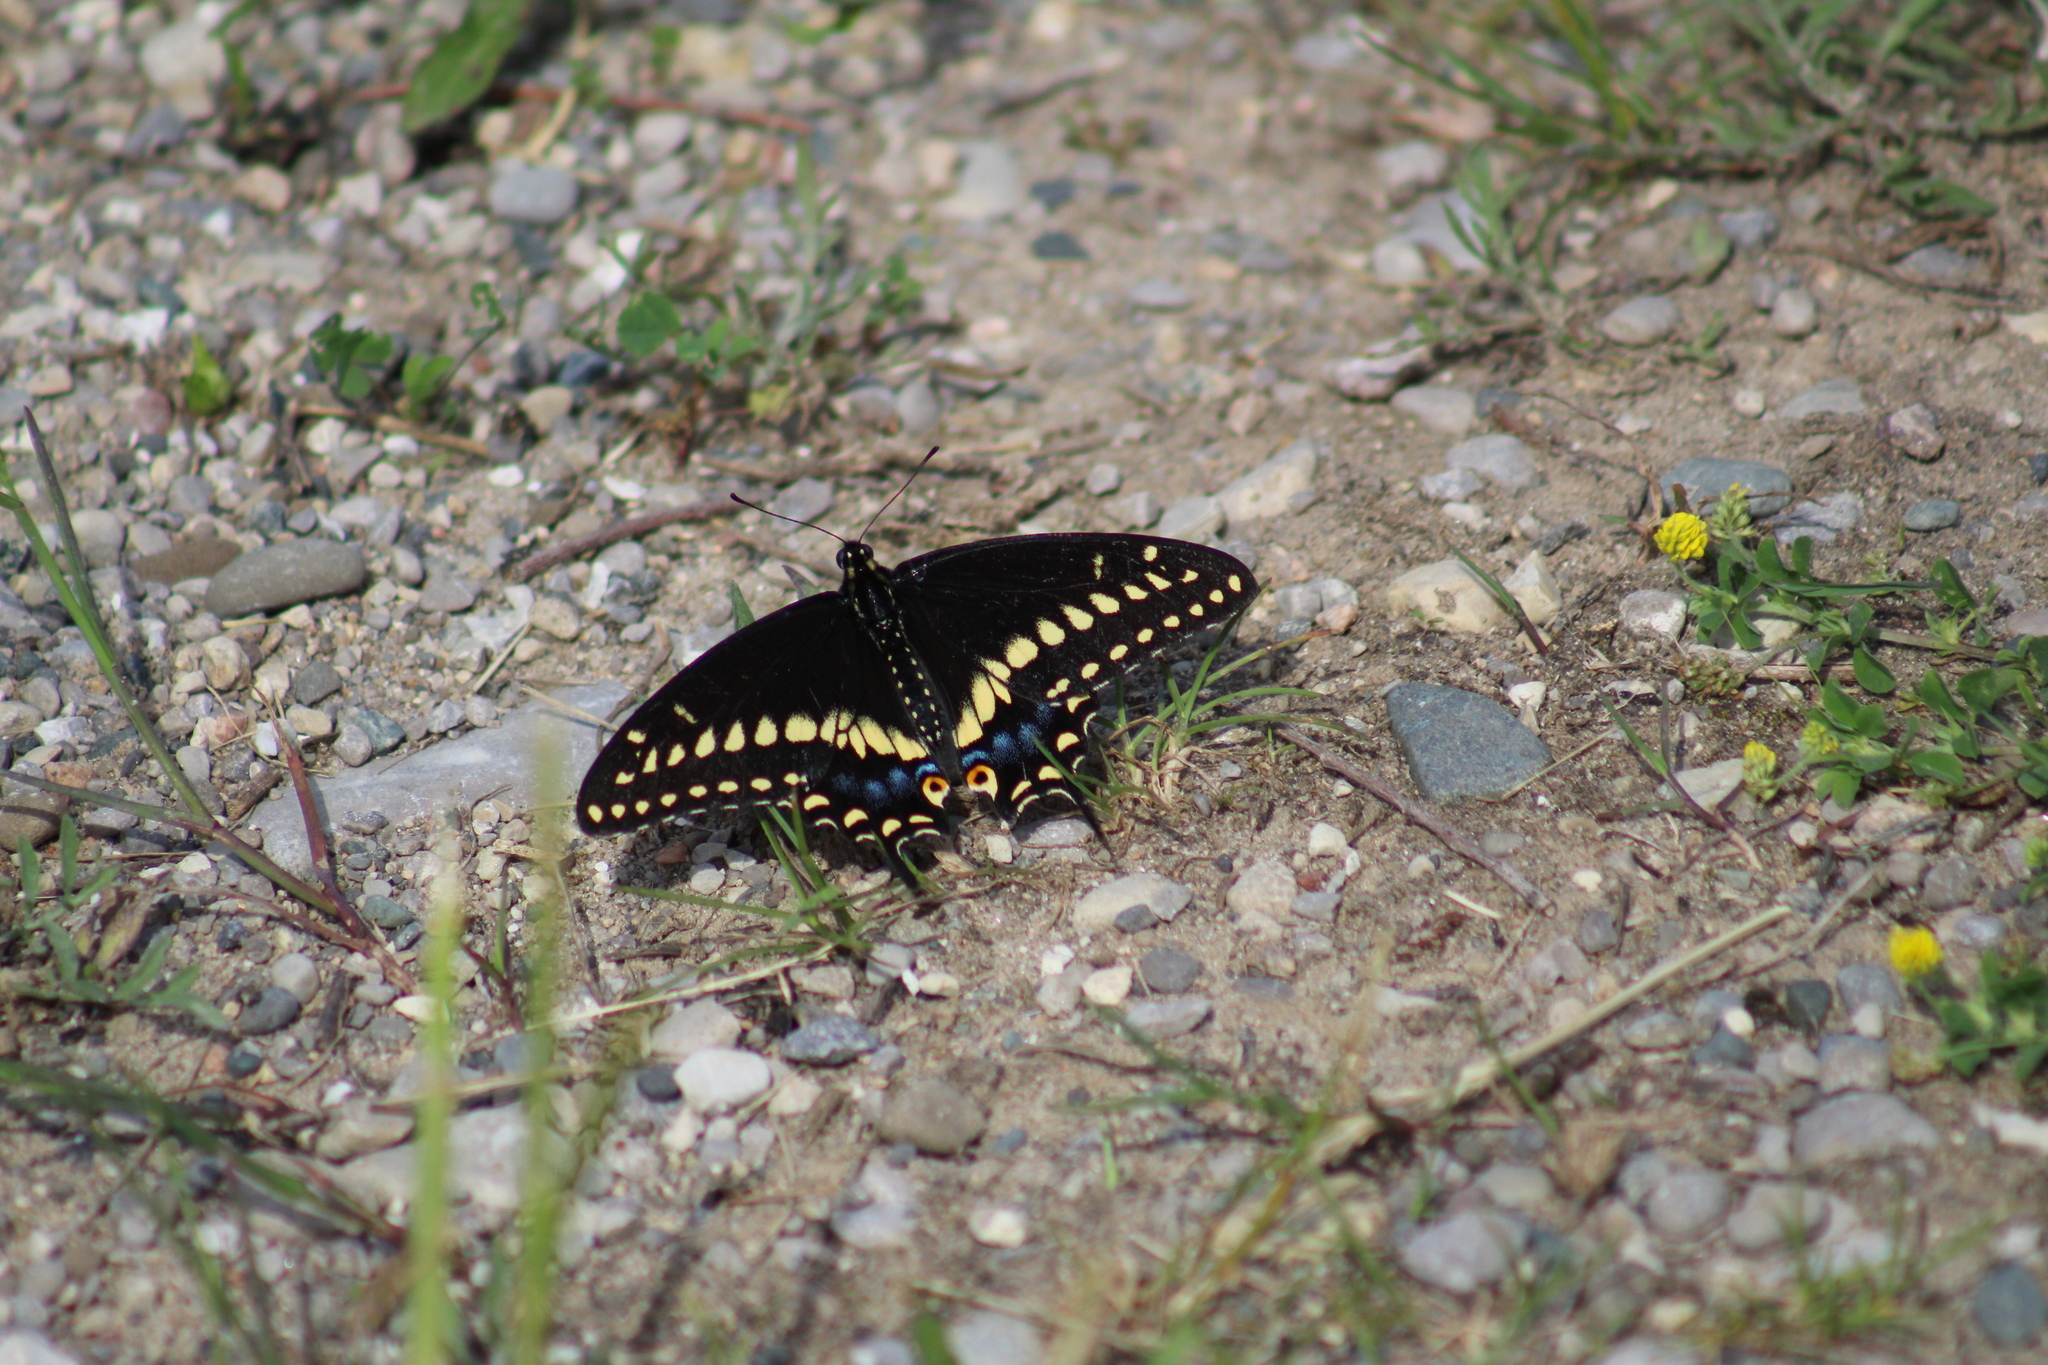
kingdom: Animalia
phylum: Arthropoda
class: Insecta
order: Lepidoptera
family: Papilionidae
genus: Papilio
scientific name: Papilio polyxenes
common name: Black swallowtail
